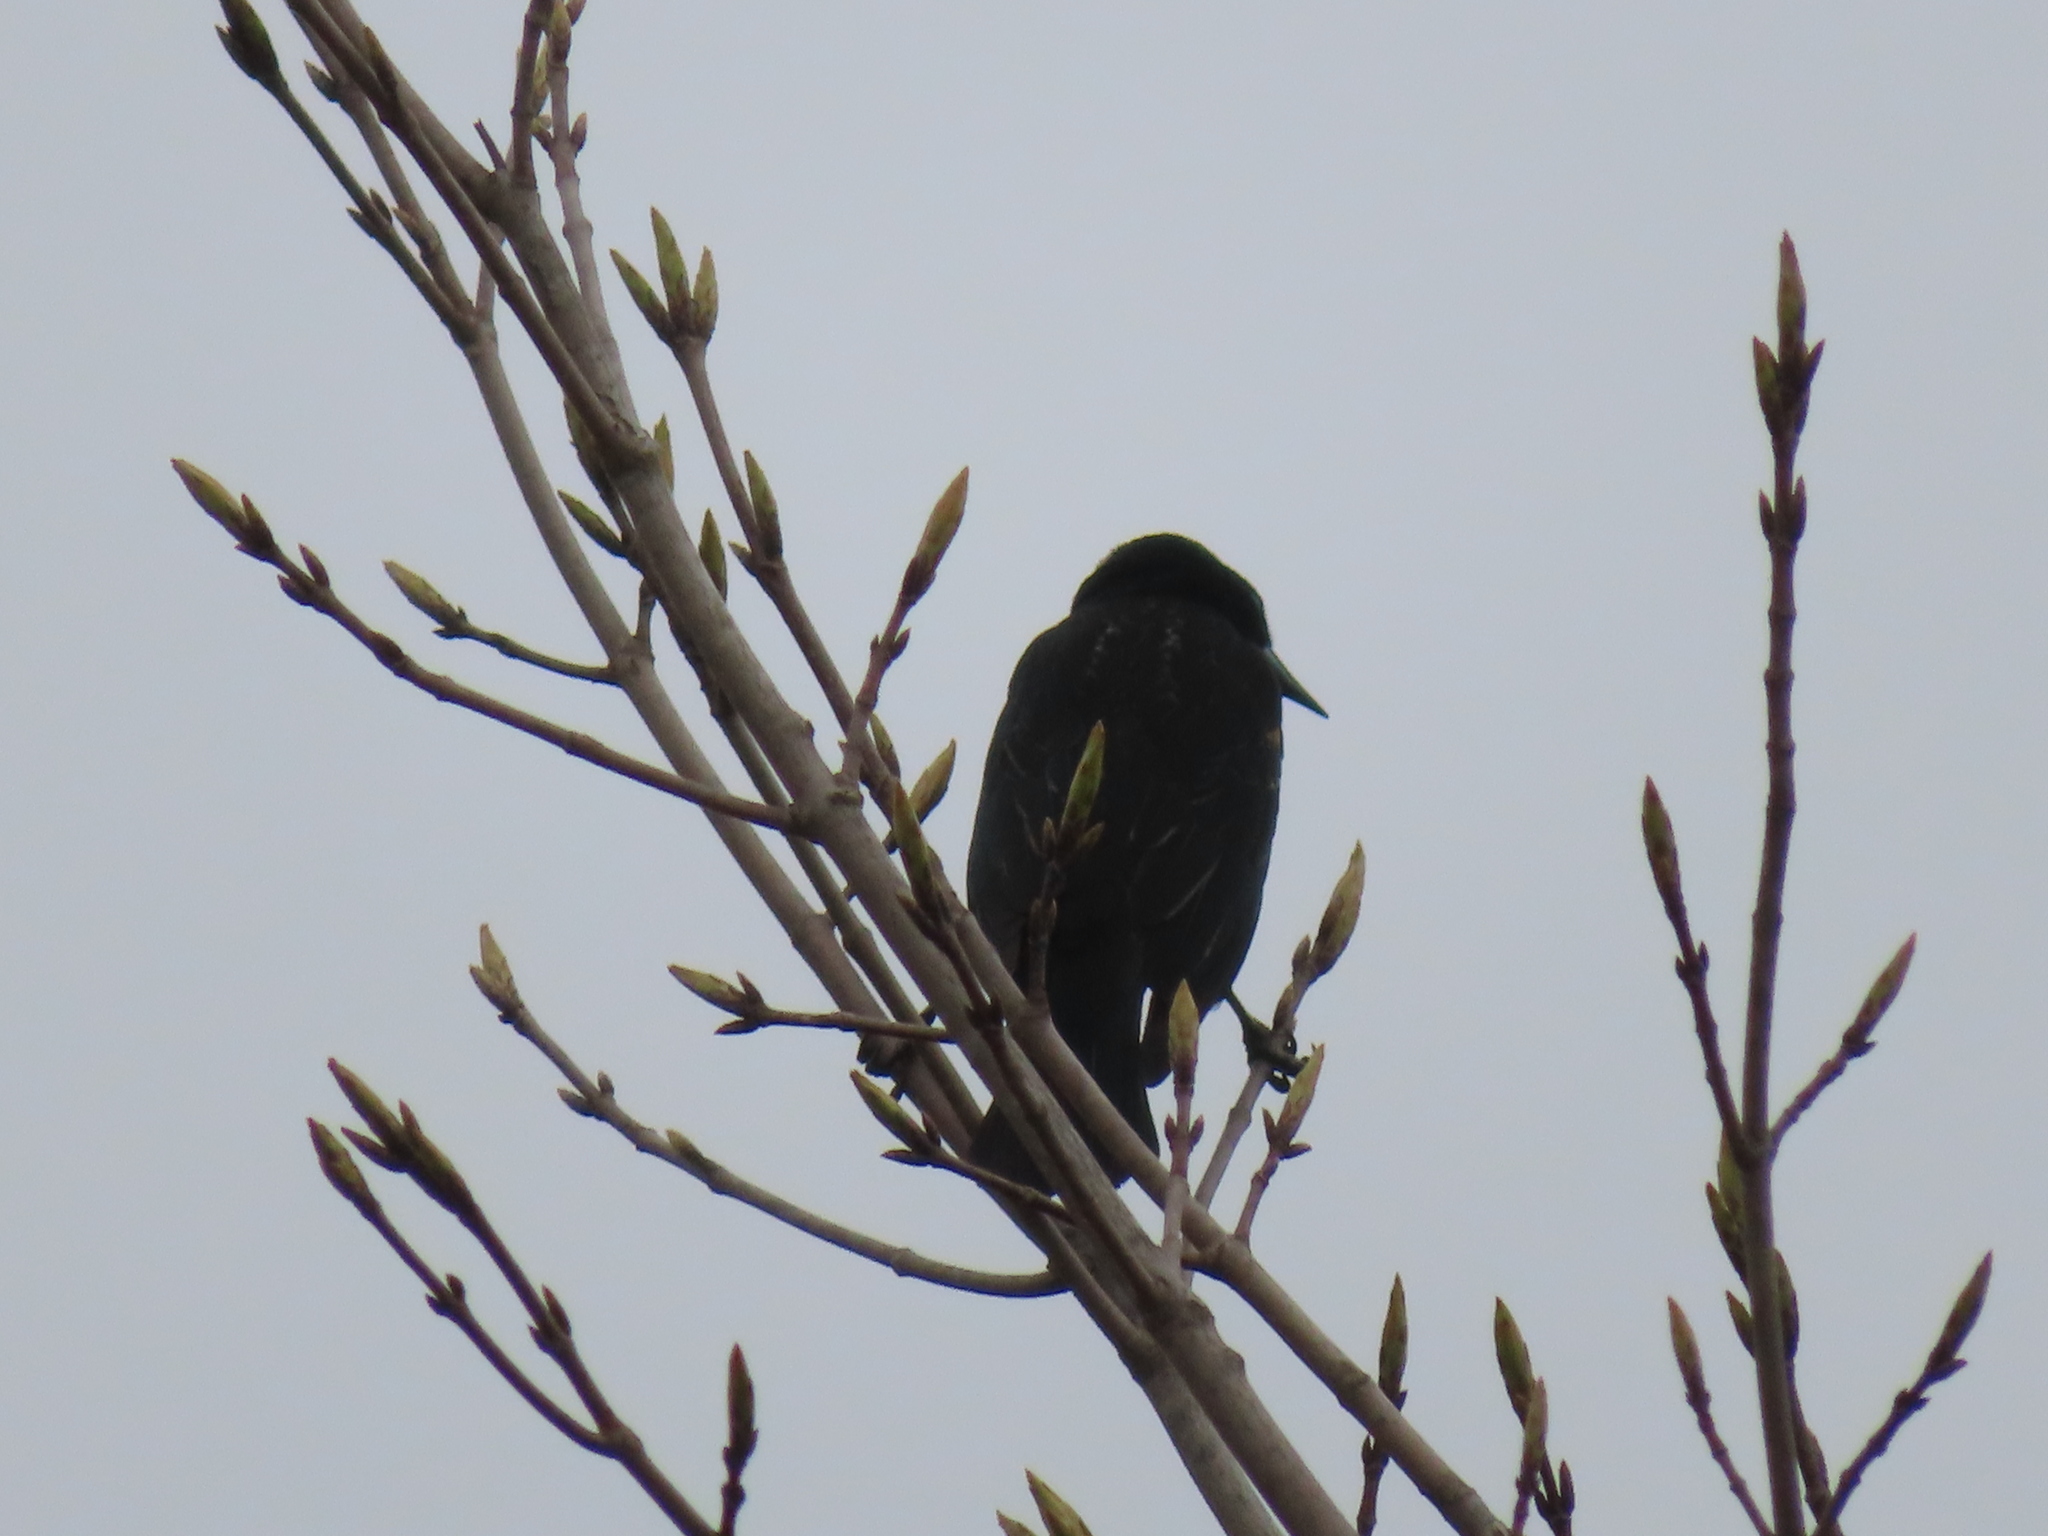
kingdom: Animalia
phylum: Chordata
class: Aves
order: Passeriformes
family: Icteridae
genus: Agelaius
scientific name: Agelaius phoeniceus
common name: Red-winged blackbird
